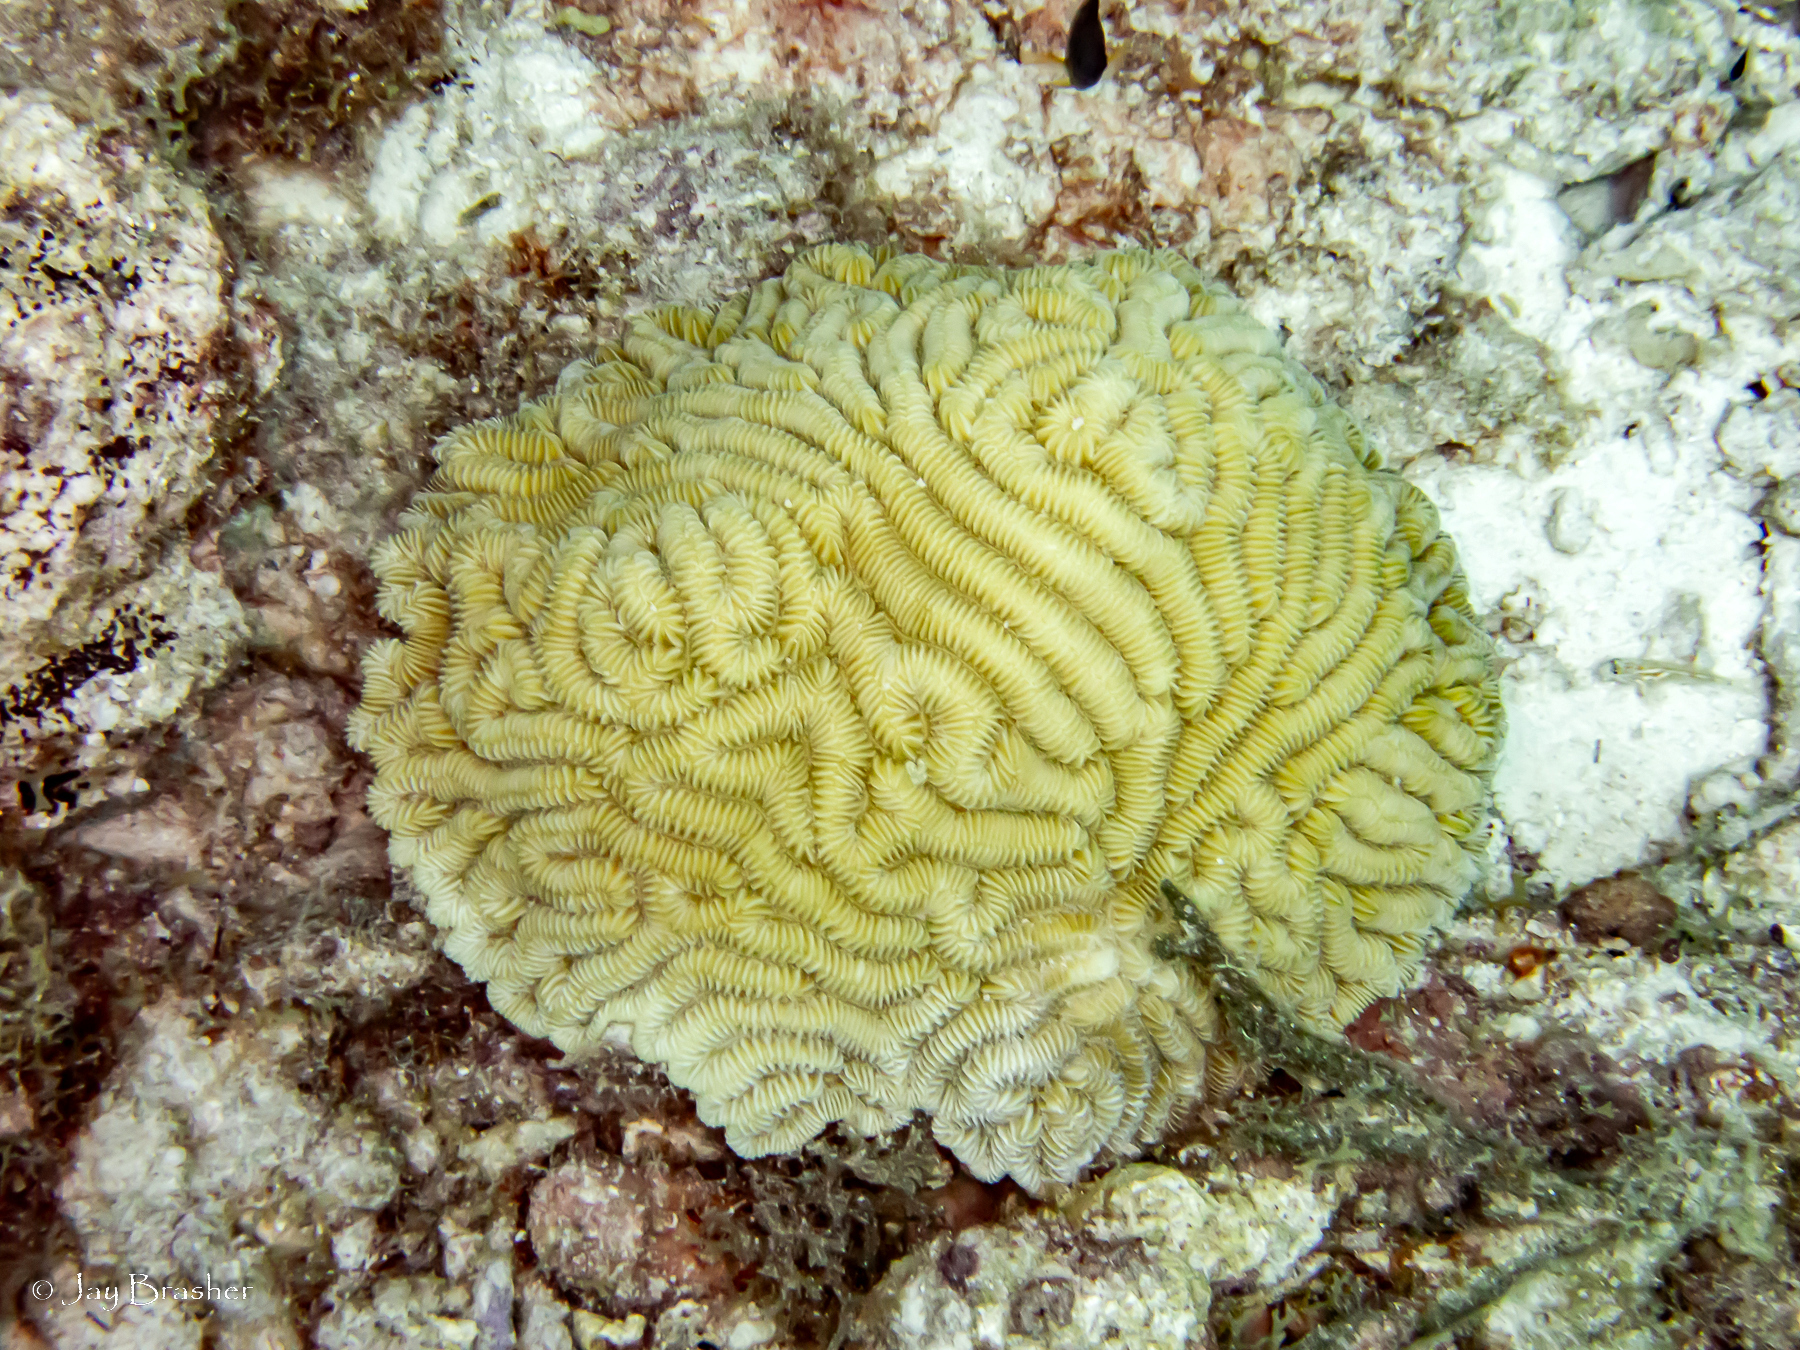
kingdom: Animalia
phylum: Cnidaria
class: Anthozoa
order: Scleractinia
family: Meandrinidae
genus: Meandrina
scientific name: Meandrina meandrites
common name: Maze coral
